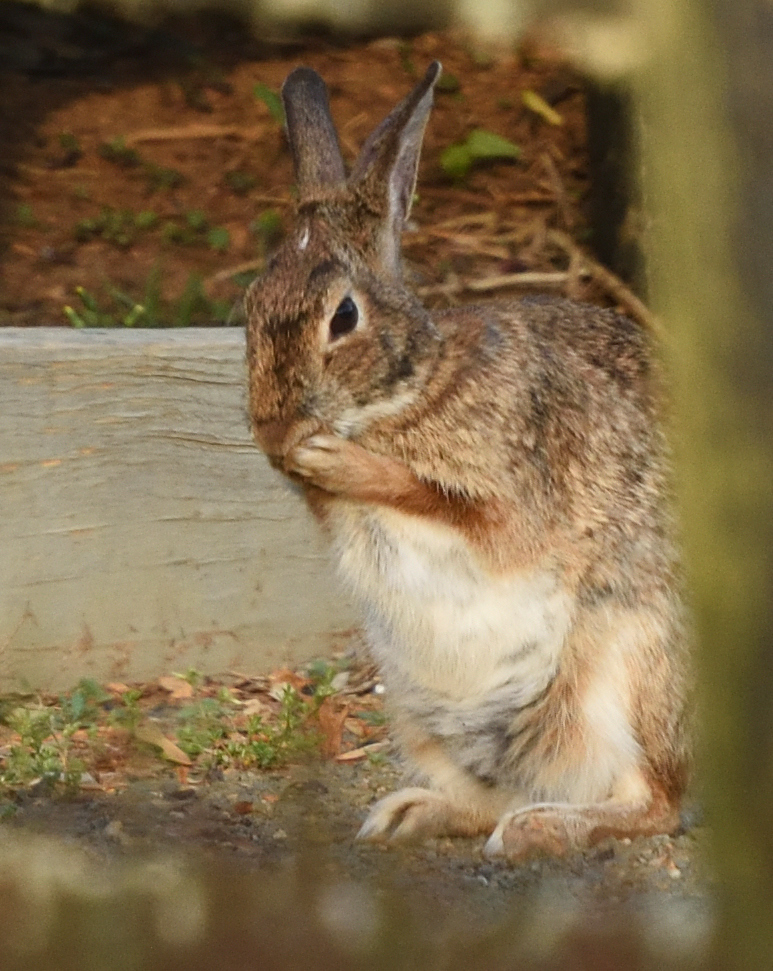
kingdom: Animalia
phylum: Chordata
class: Mammalia
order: Lagomorpha
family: Leporidae
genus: Sylvilagus
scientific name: Sylvilagus floridanus
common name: Eastern cottontail
